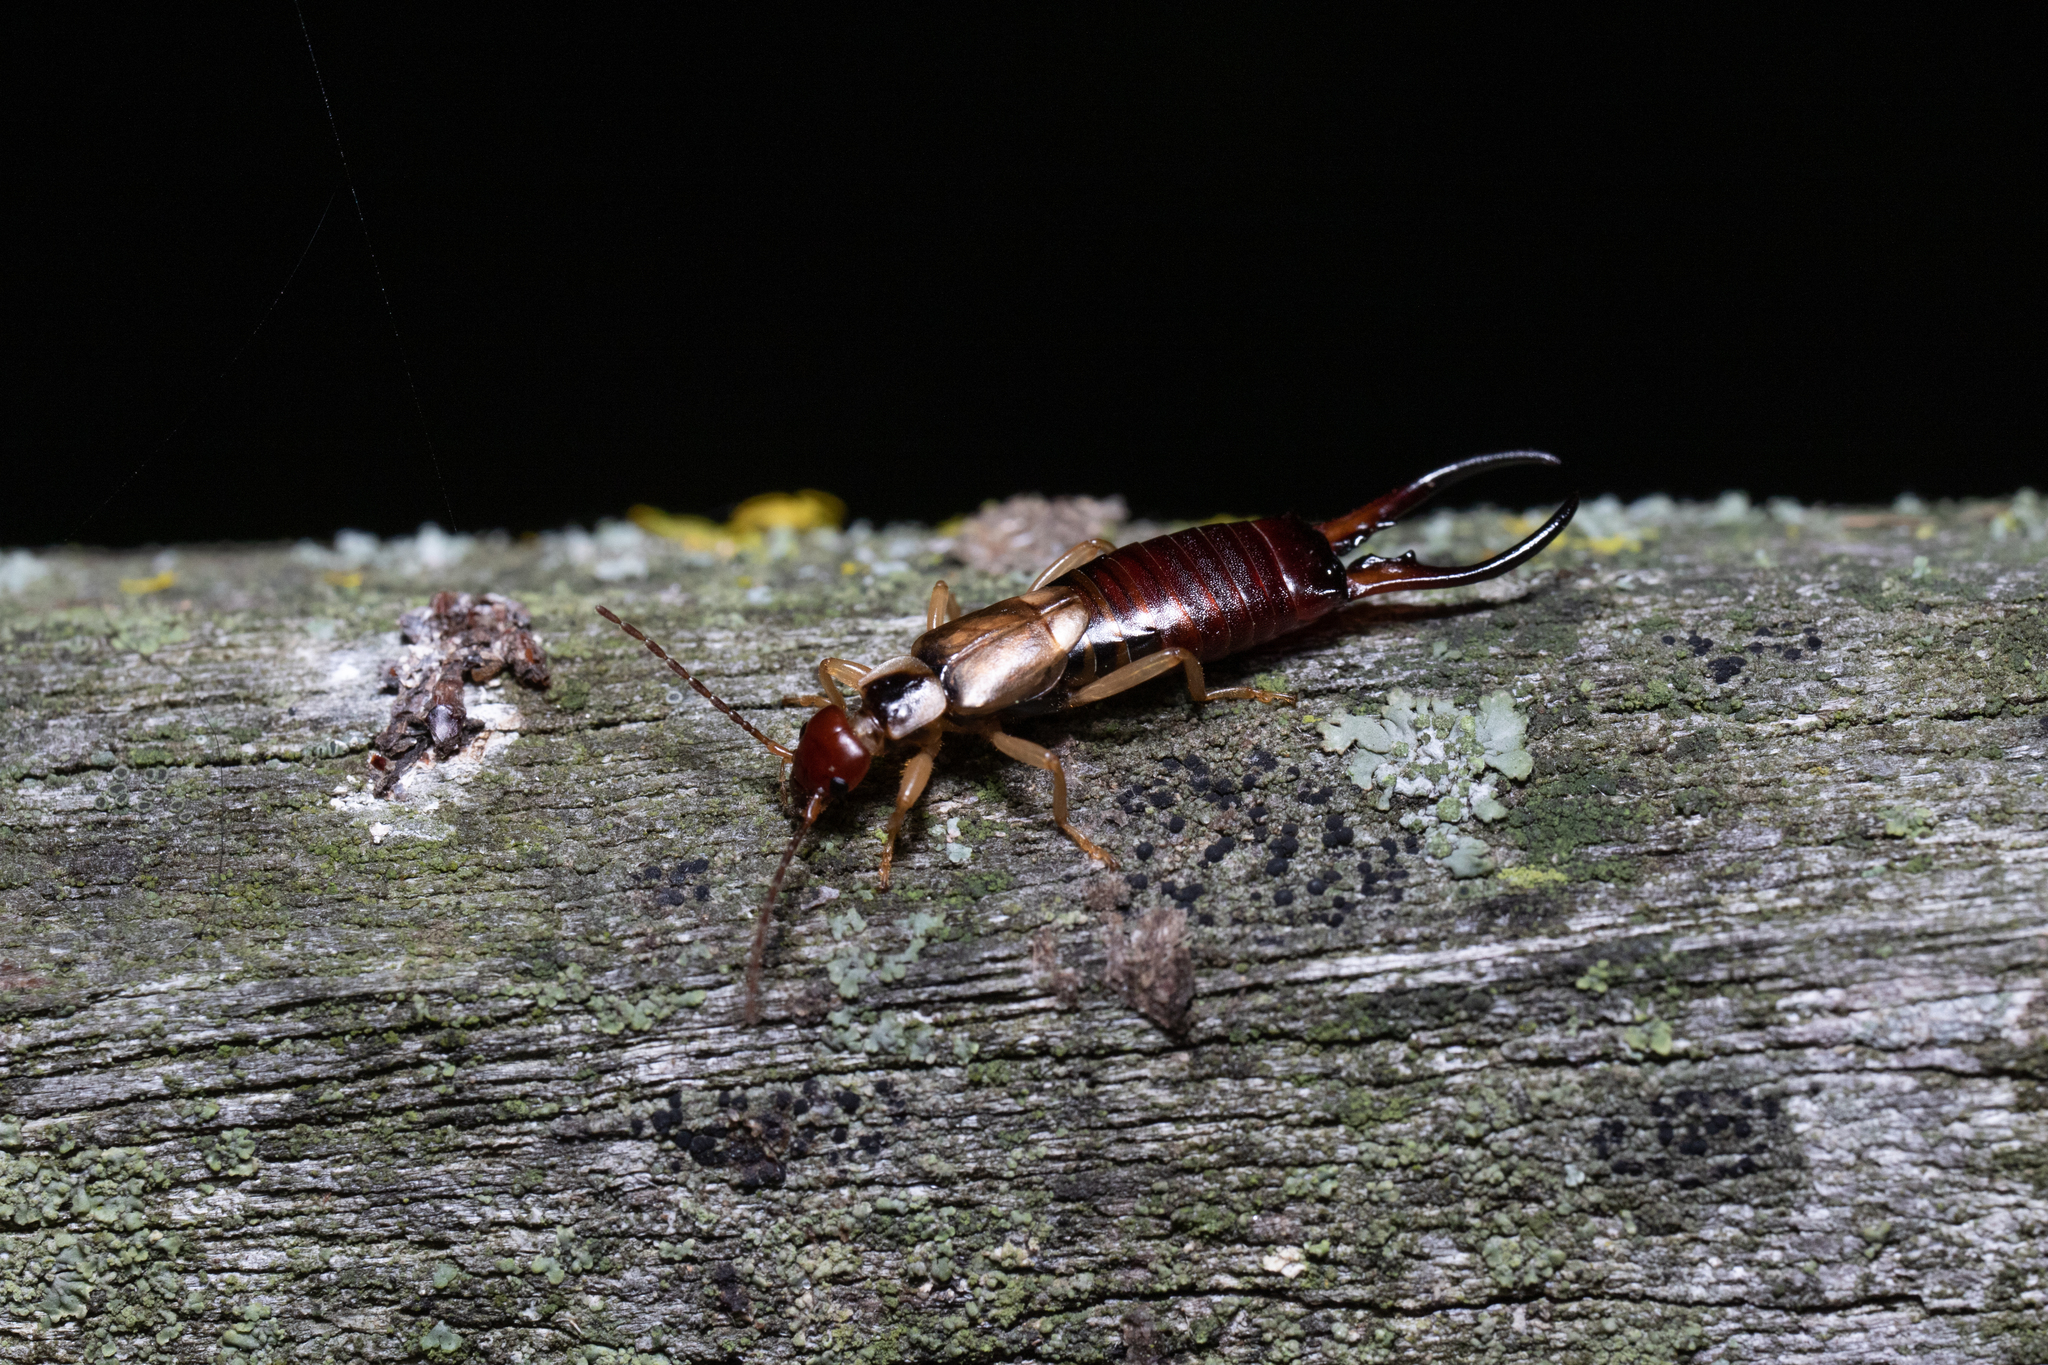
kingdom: Animalia
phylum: Arthropoda
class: Insecta
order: Dermaptera
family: Forficulidae
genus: Forficula
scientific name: Forficula
